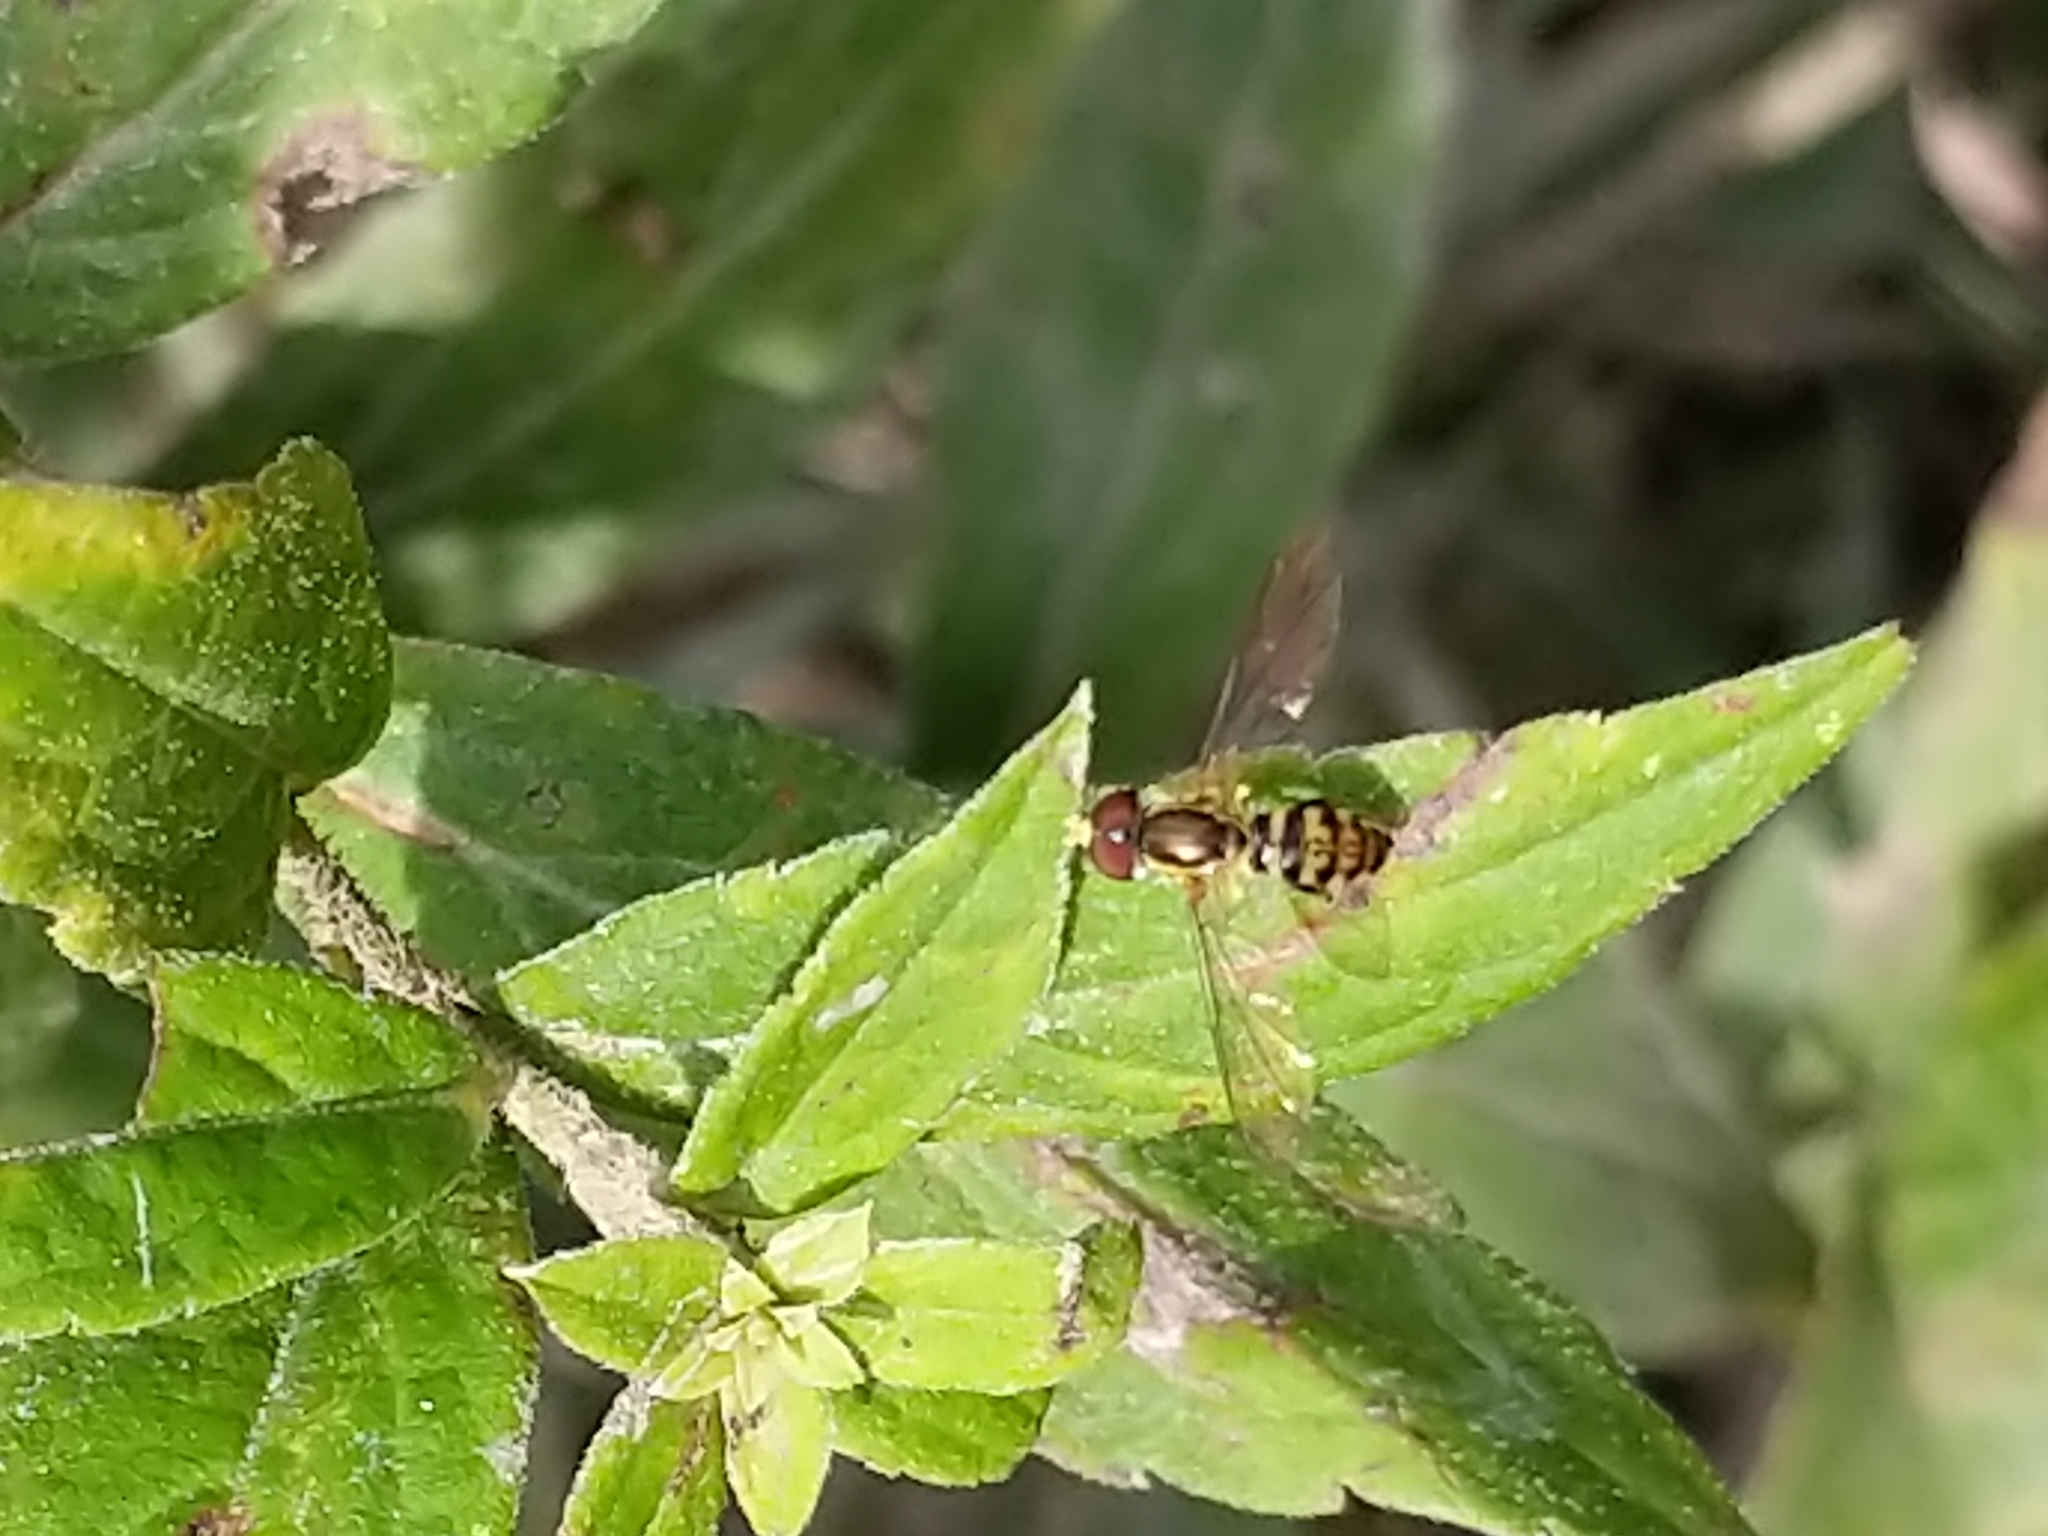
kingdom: Animalia
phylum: Arthropoda
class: Insecta
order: Diptera
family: Syrphidae
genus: Toxomerus
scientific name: Toxomerus geminatus
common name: Eastern calligrapher
